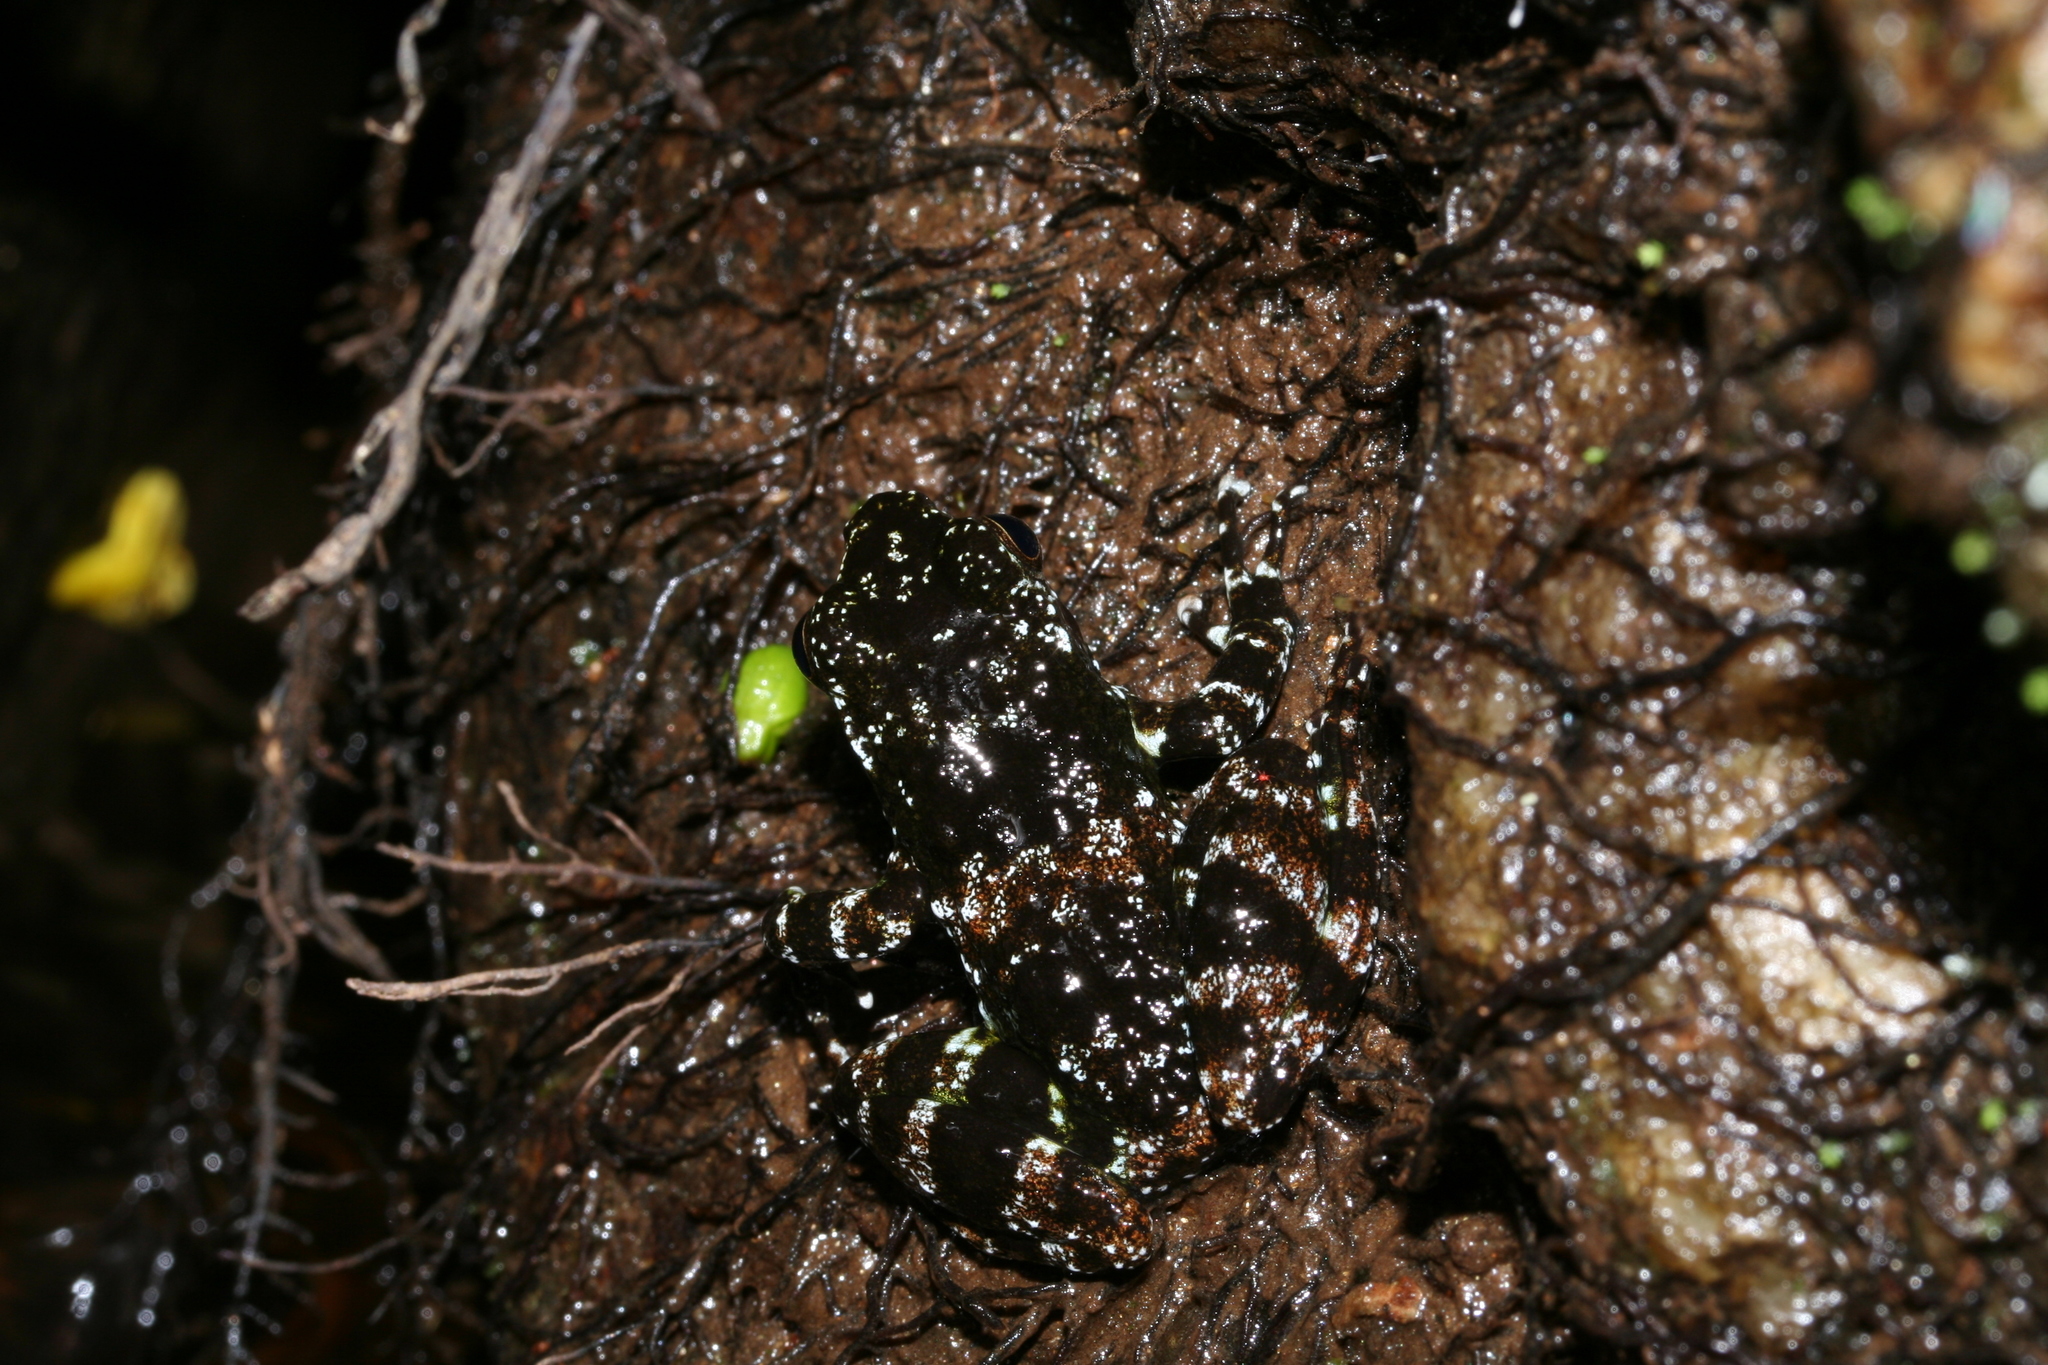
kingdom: Animalia
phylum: Chordata
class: Amphibia
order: Anura
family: Mantellidae
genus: Mantidactylus
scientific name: Mantidactylus cowanii
